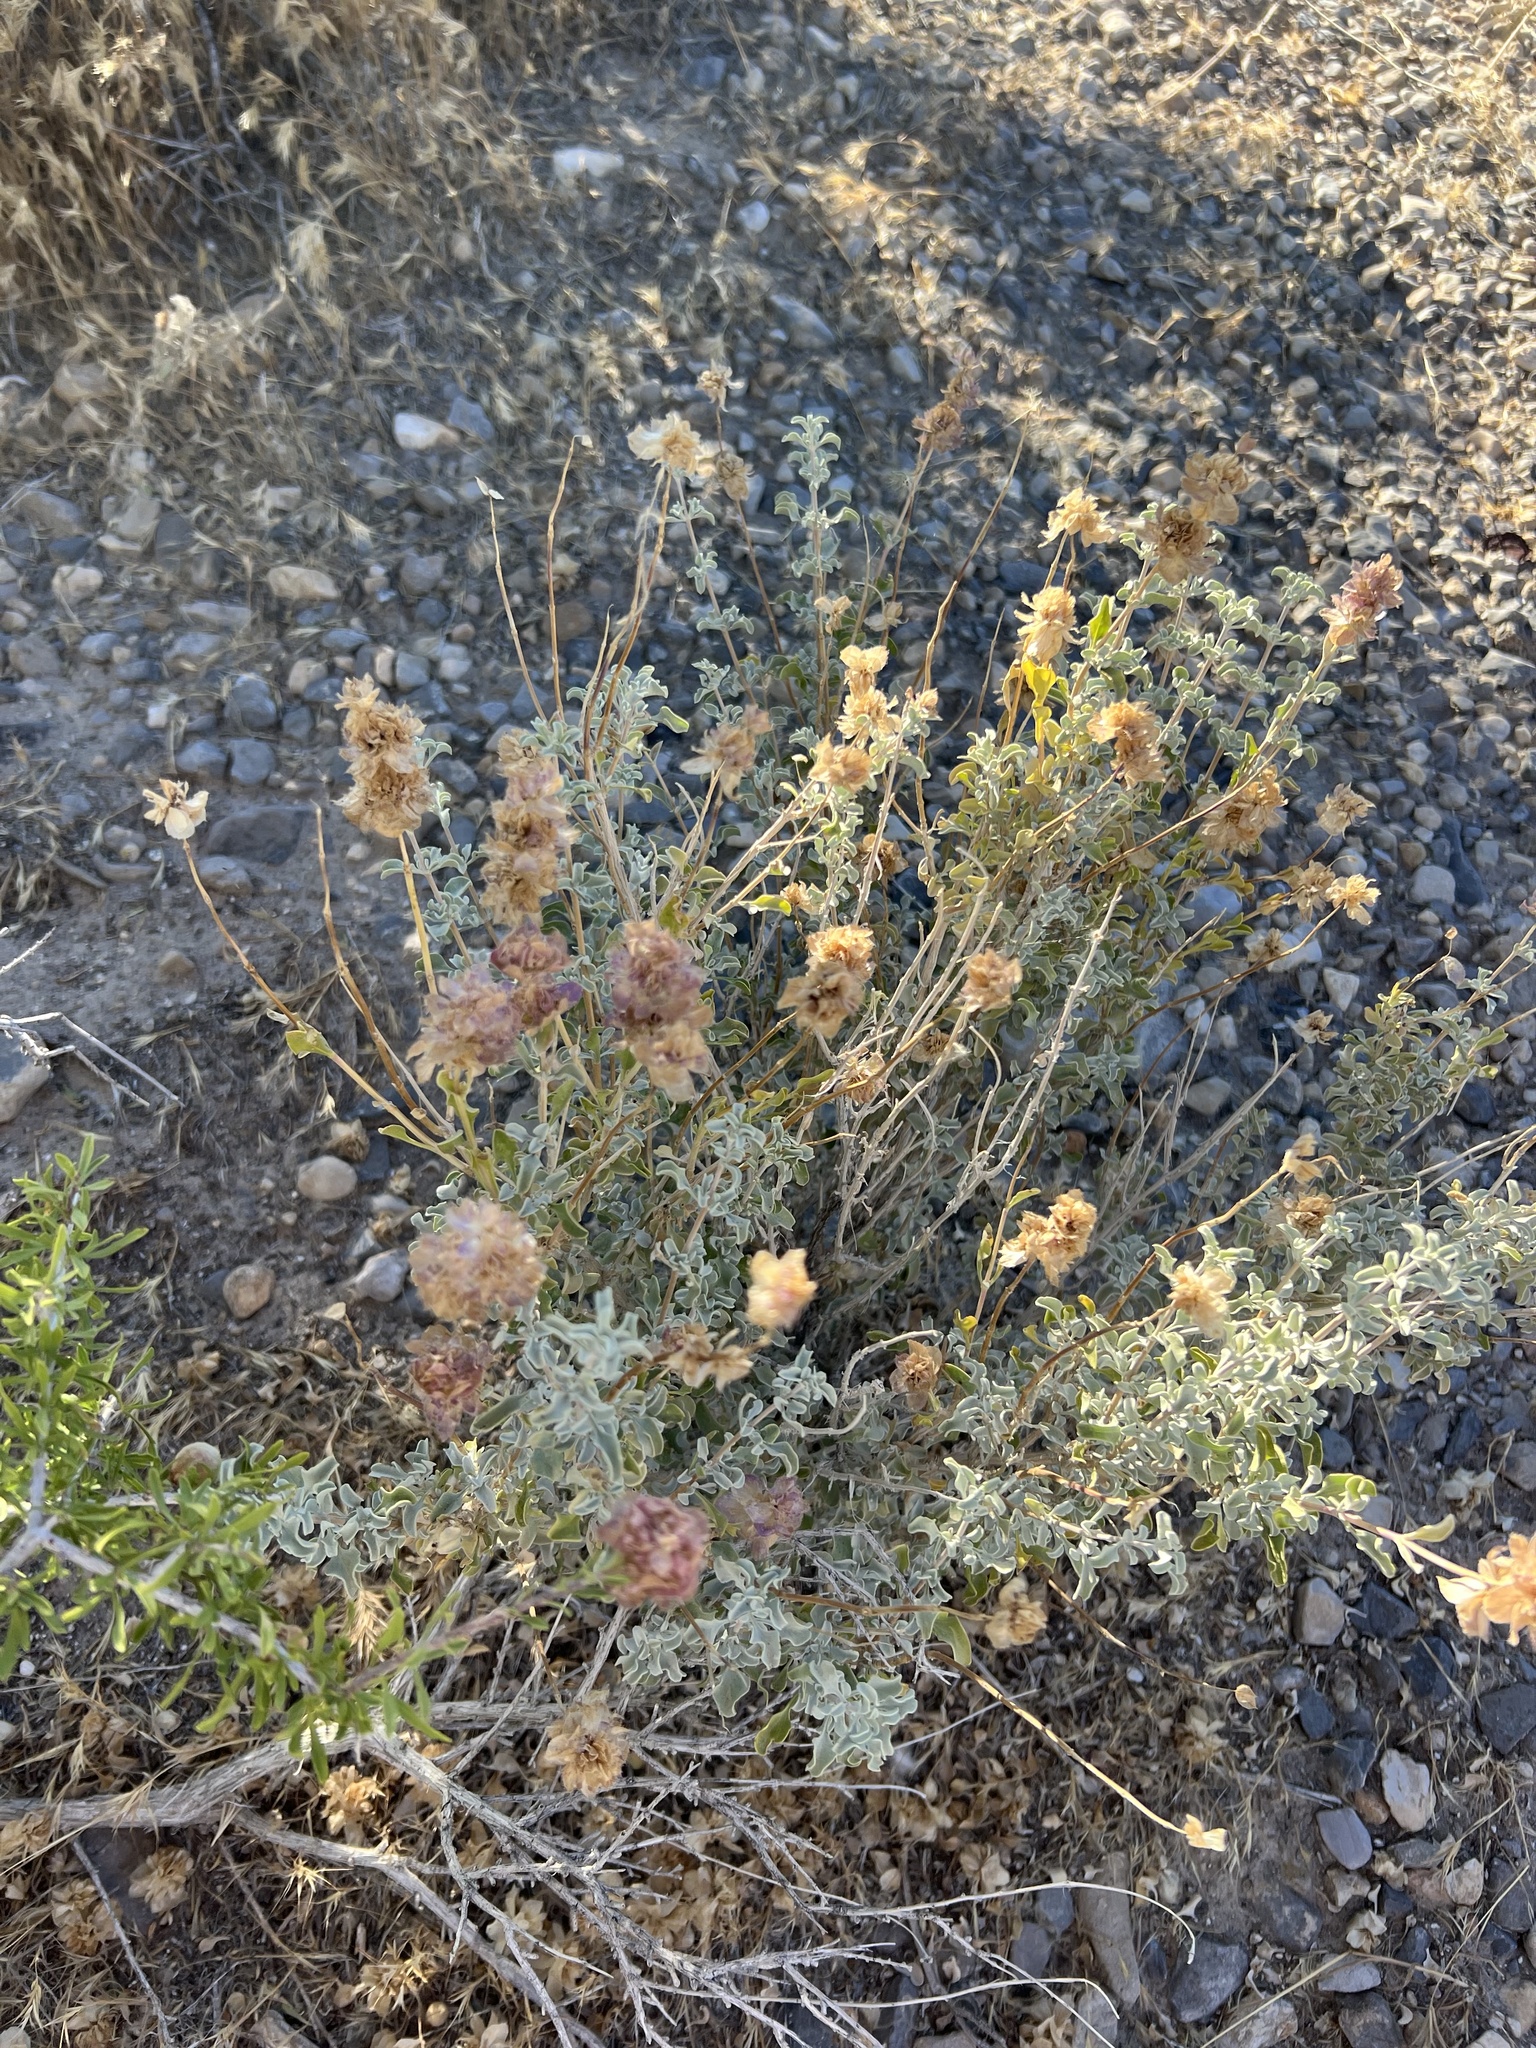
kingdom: Plantae
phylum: Tracheophyta
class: Magnoliopsida
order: Lamiales
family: Lamiaceae
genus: Salvia
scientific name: Salvia dorrii
